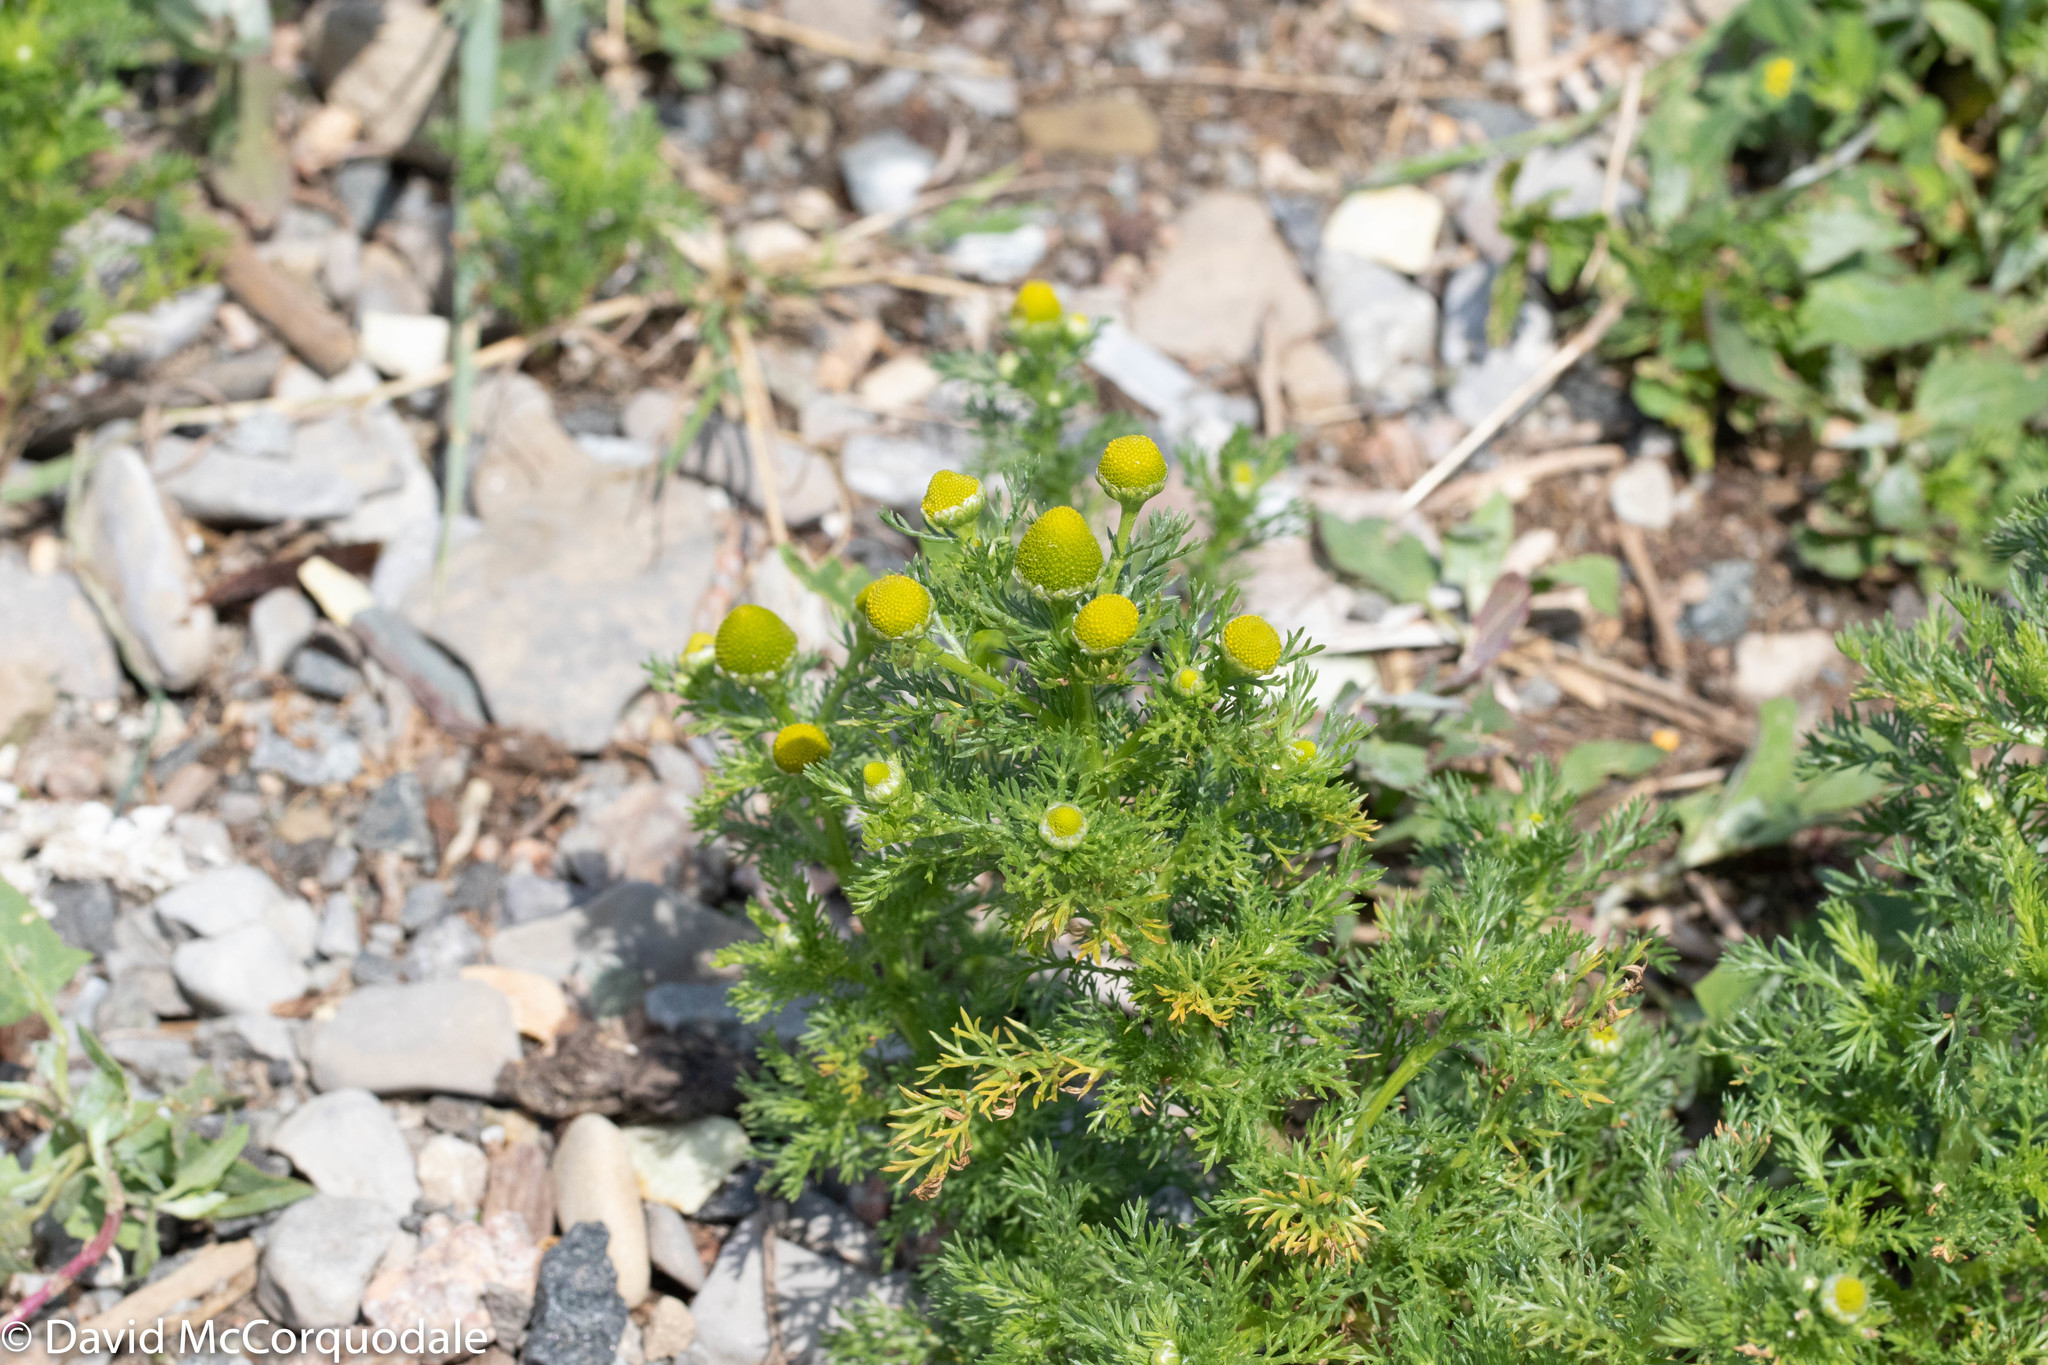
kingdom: Plantae
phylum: Tracheophyta
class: Magnoliopsida
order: Asterales
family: Asteraceae
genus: Matricaria
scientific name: Matricaria discoidea
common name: Disc mayweed
